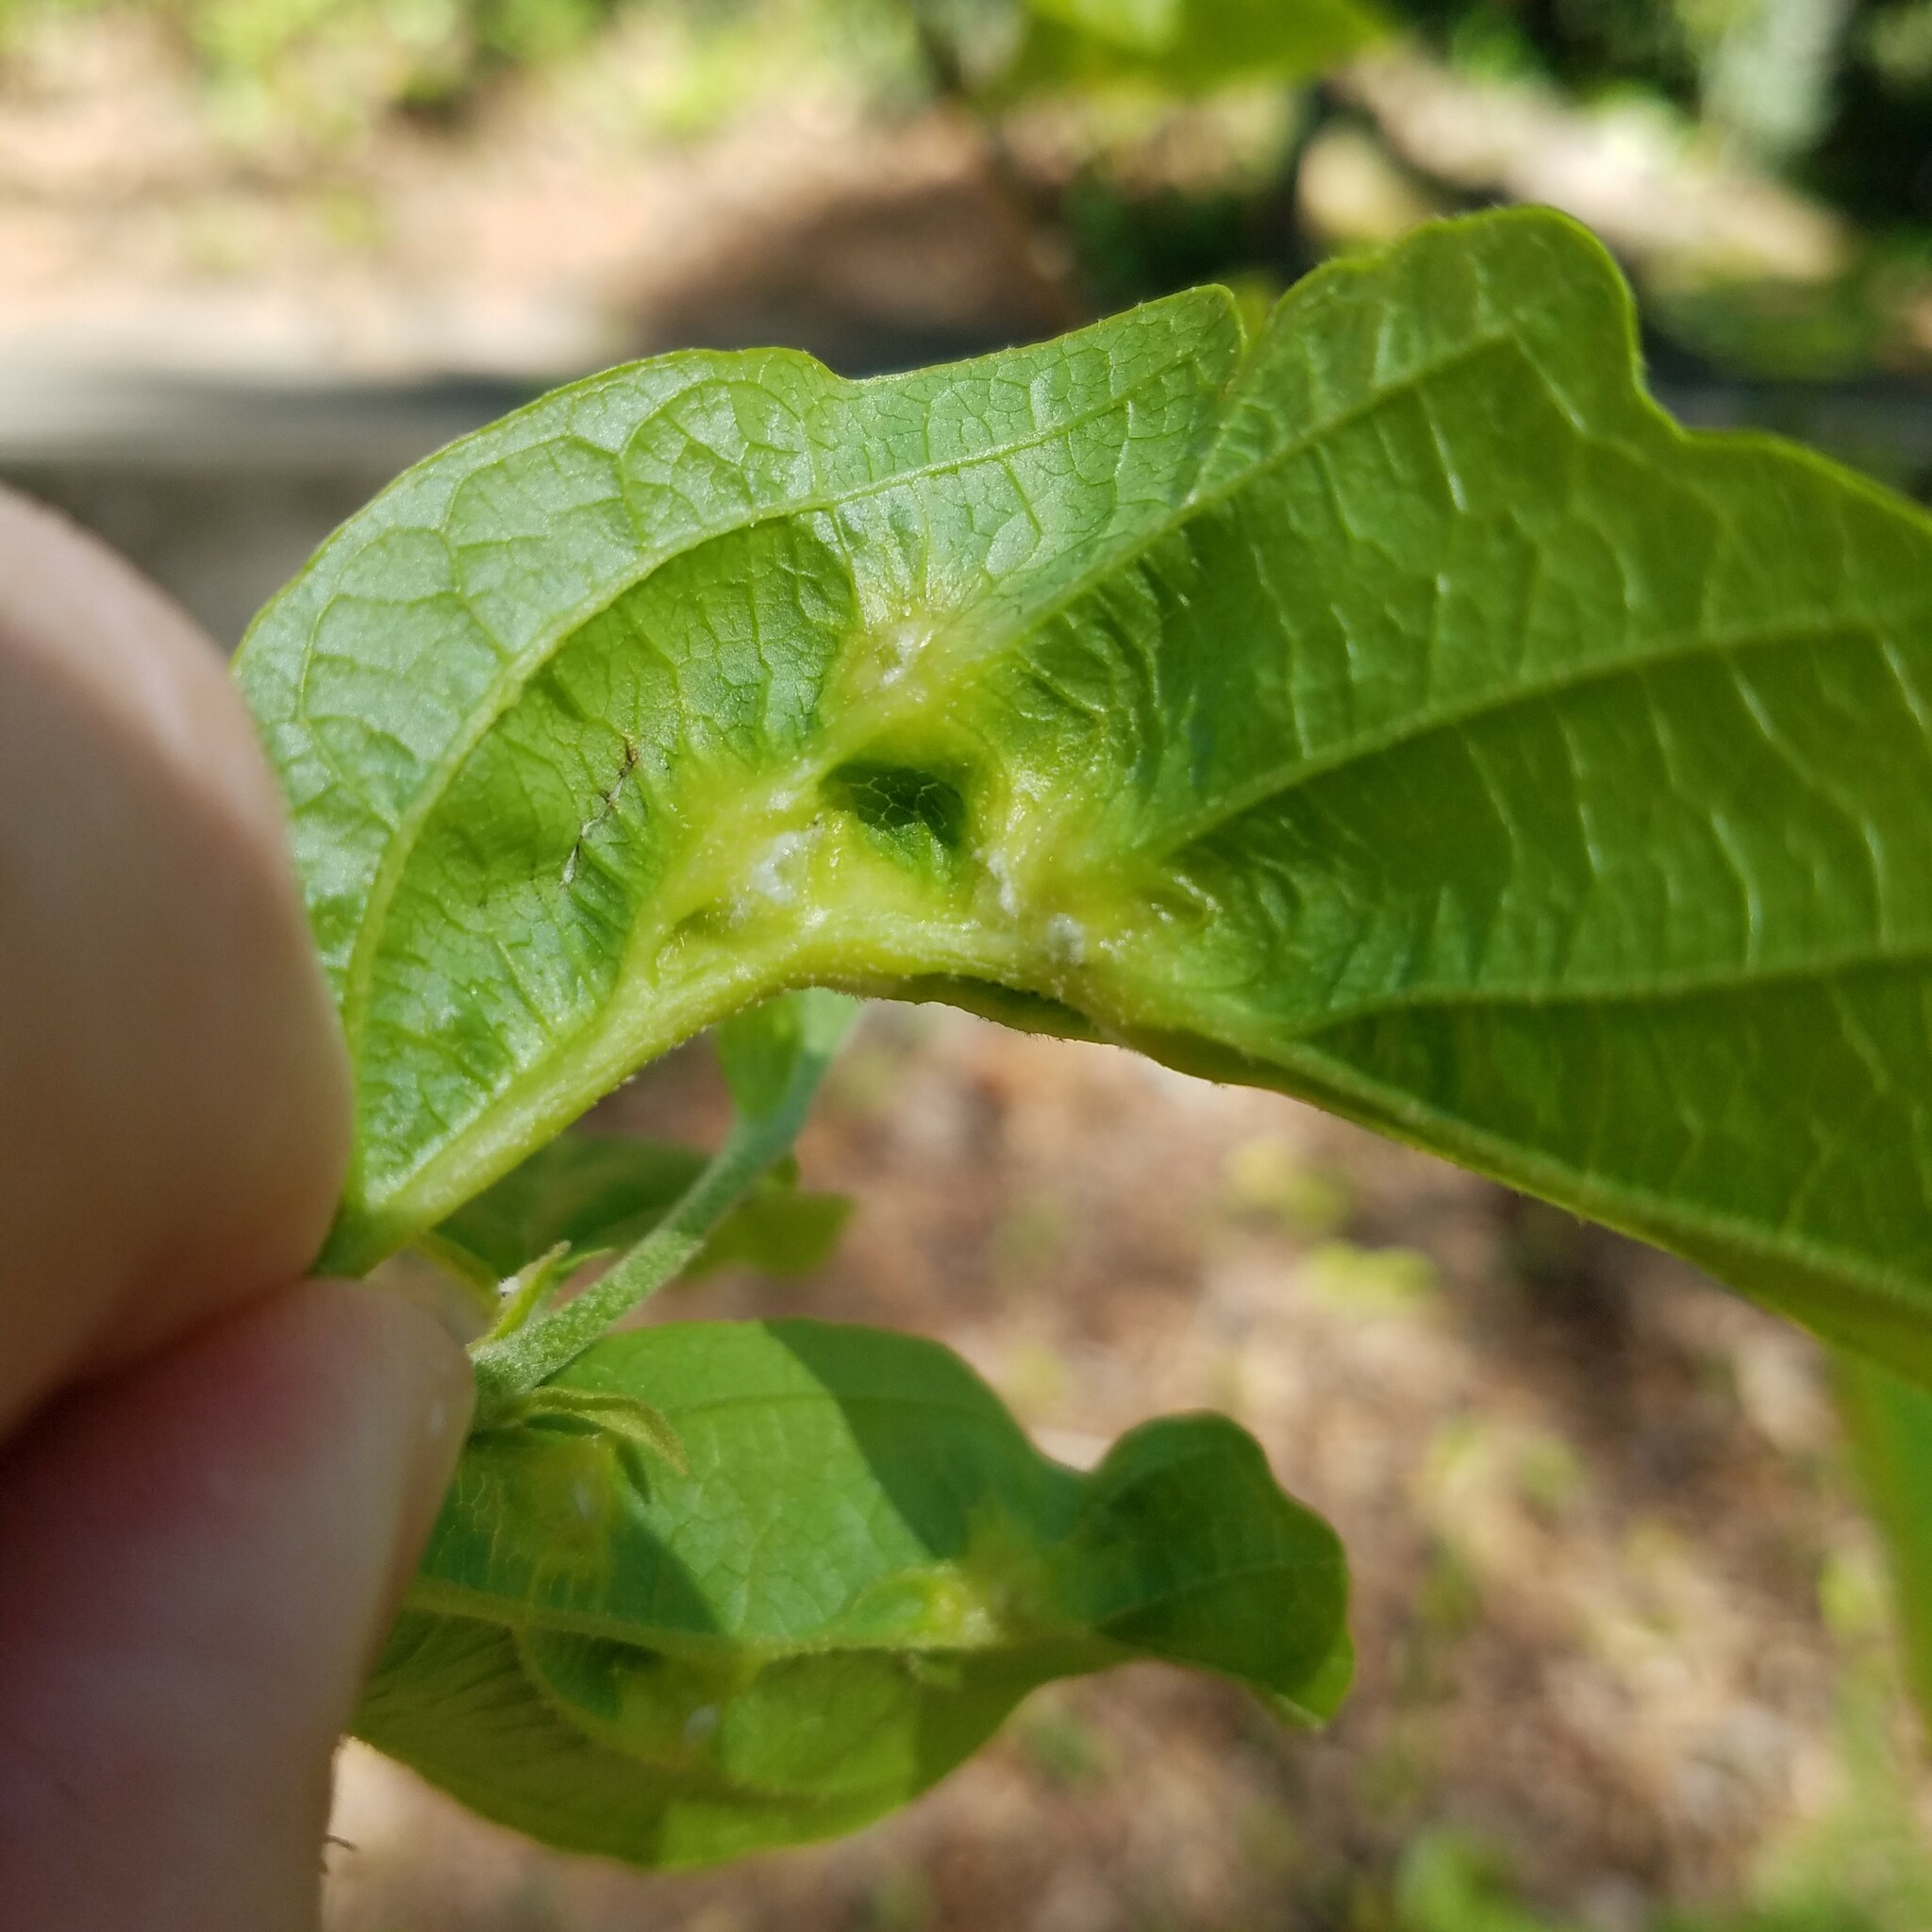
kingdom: Animalia
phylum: Arthropoda
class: Insecta
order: Hemiptera
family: Aphididae
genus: Hormaphis
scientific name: Hormaphis hamamelidis
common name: Witch-hazel cone gall aphid
